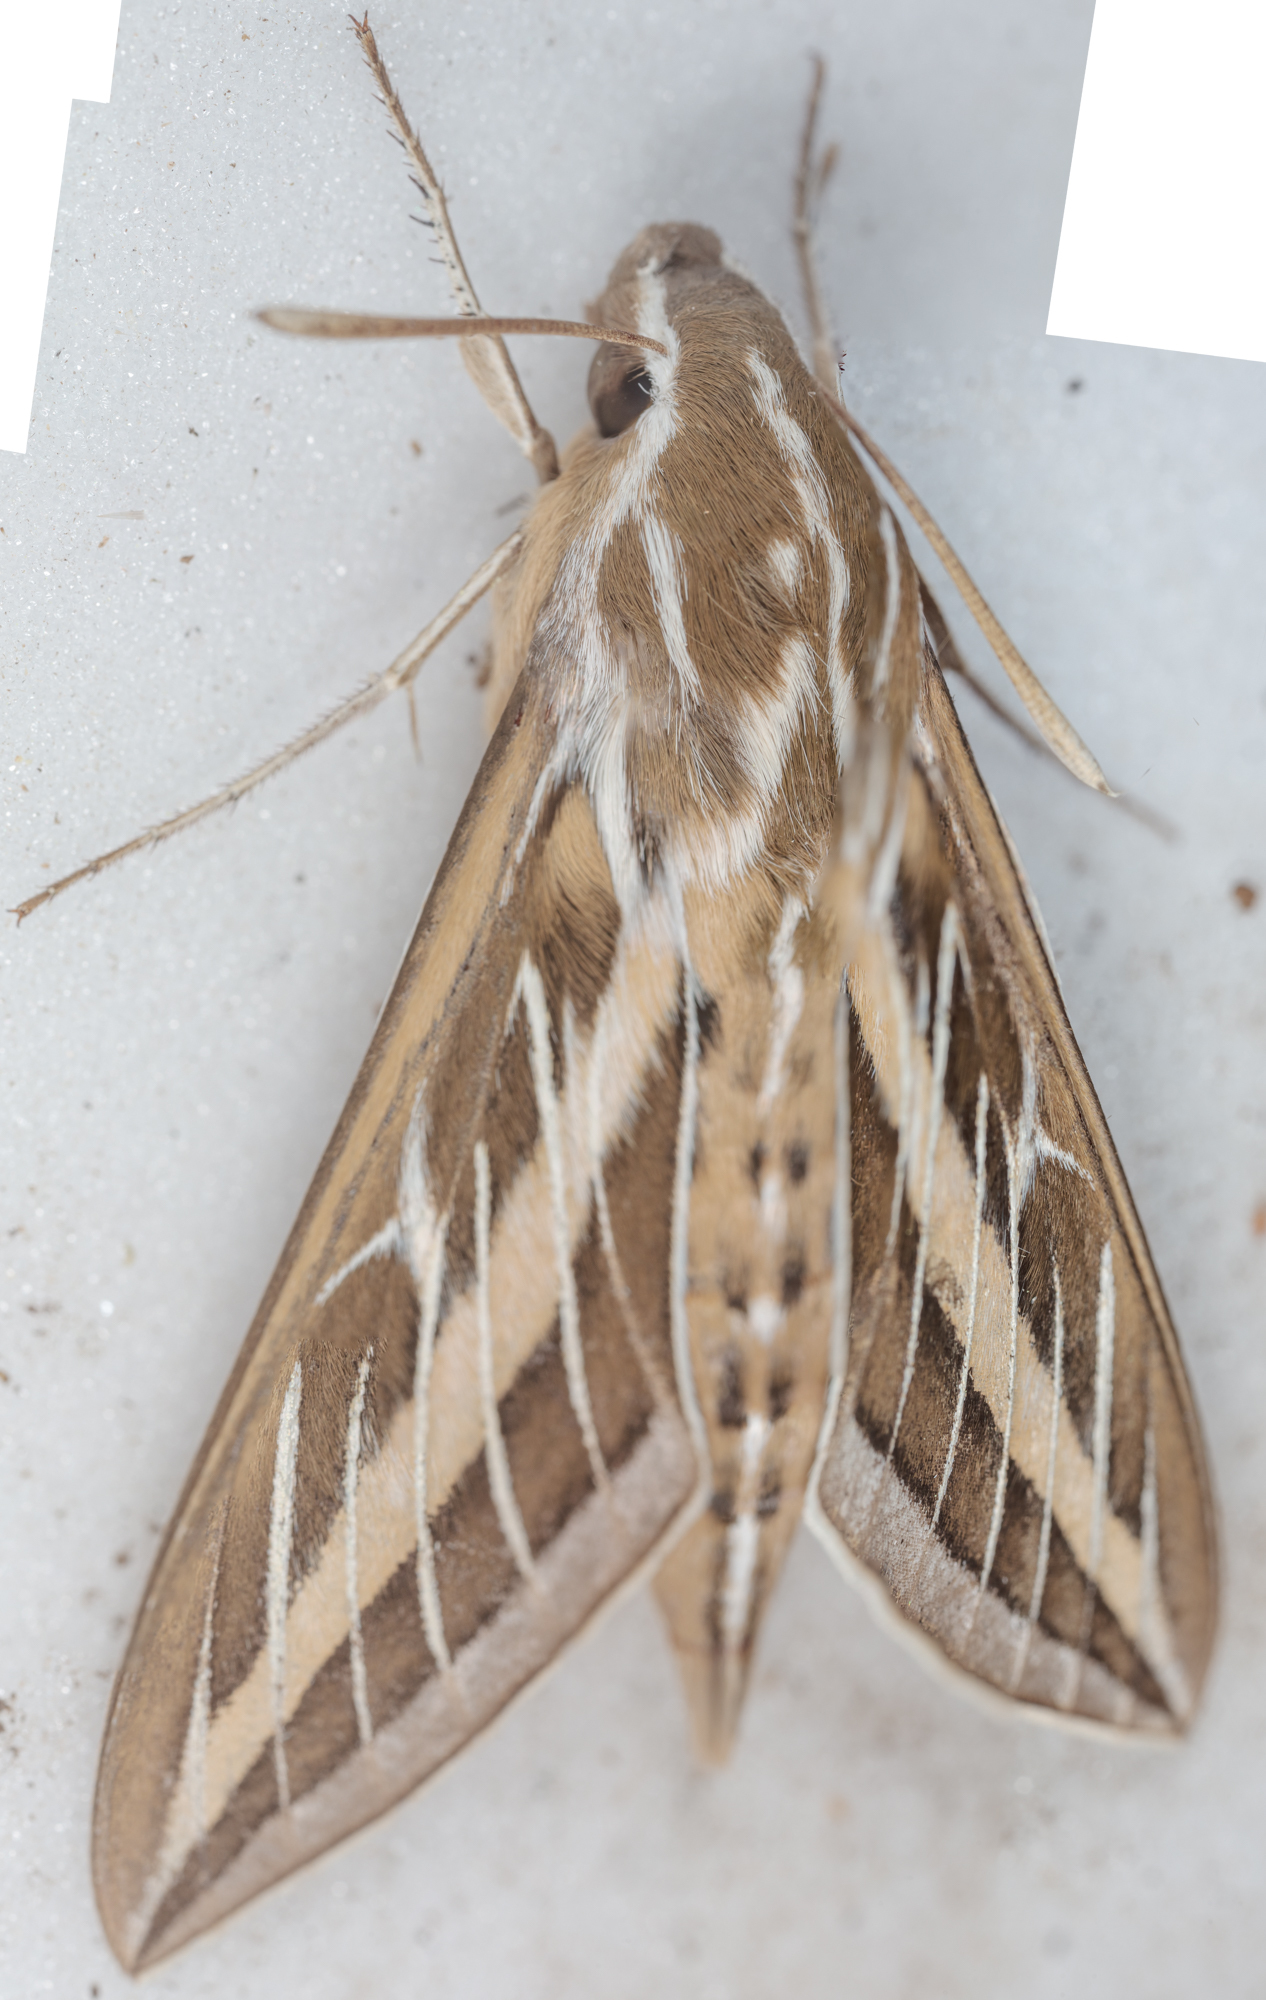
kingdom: Animalia
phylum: Arthropoda
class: Insecta
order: Lepidoptera
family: Sphingidae
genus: Hyles
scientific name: Hyles lineata
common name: White-lined sphinx
